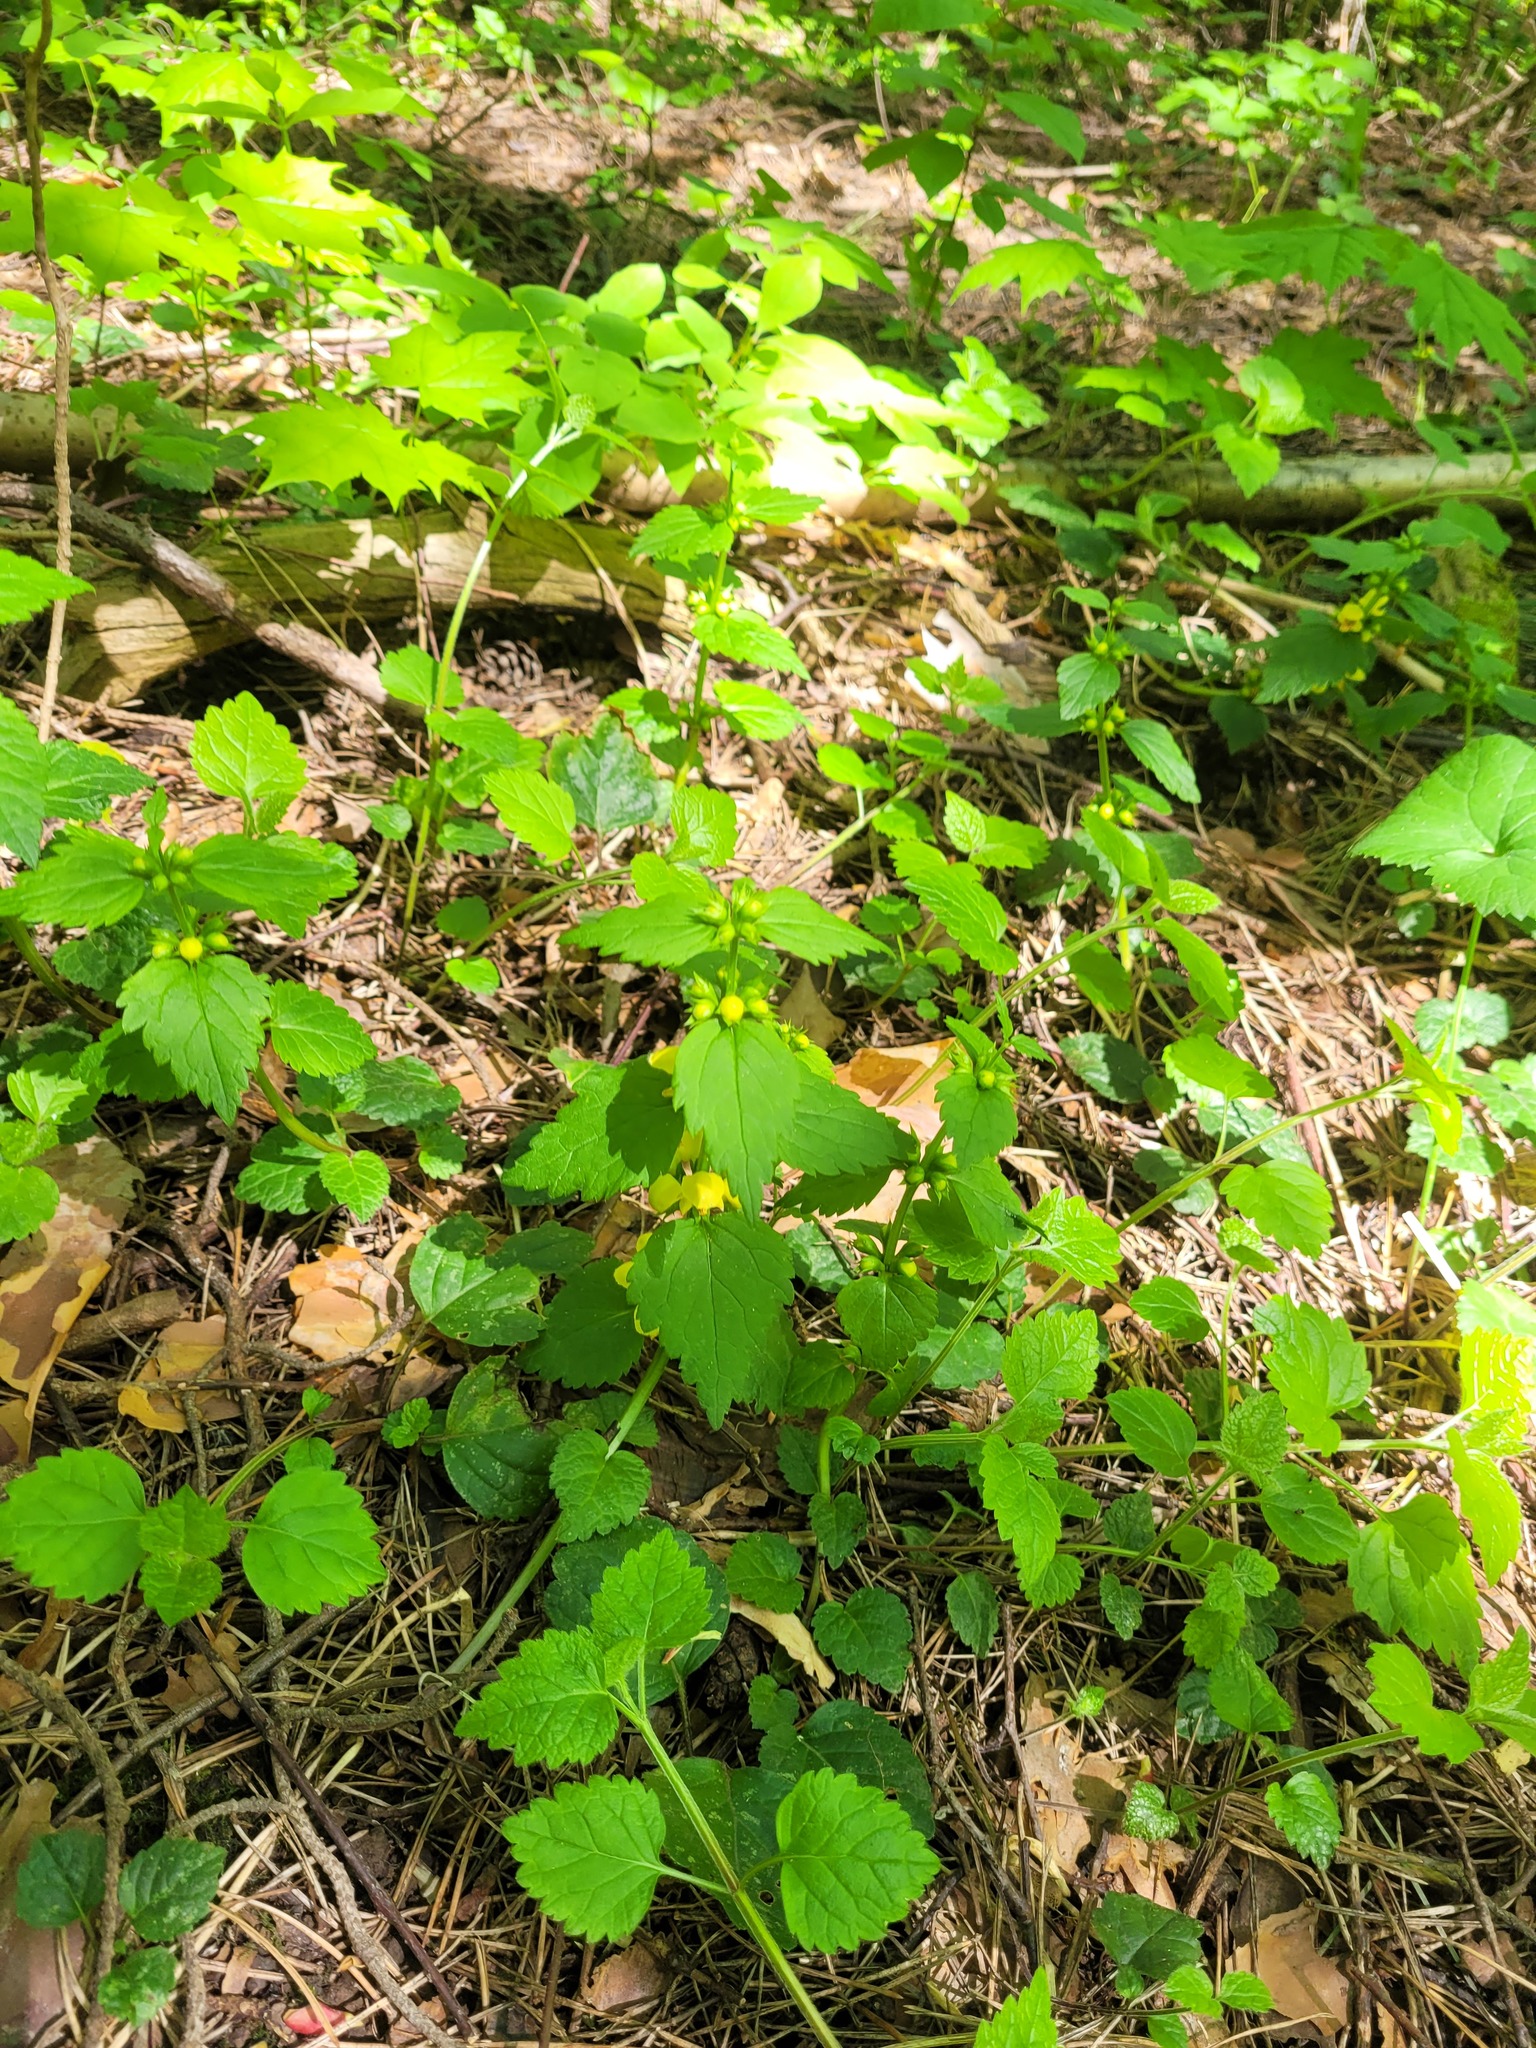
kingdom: Plantae
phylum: Tracheophyta
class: Magnoliopsida
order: Lamiales
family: Lamiaceae
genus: Lamium
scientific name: Lamium galeobdolon
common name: Yellow archangel
